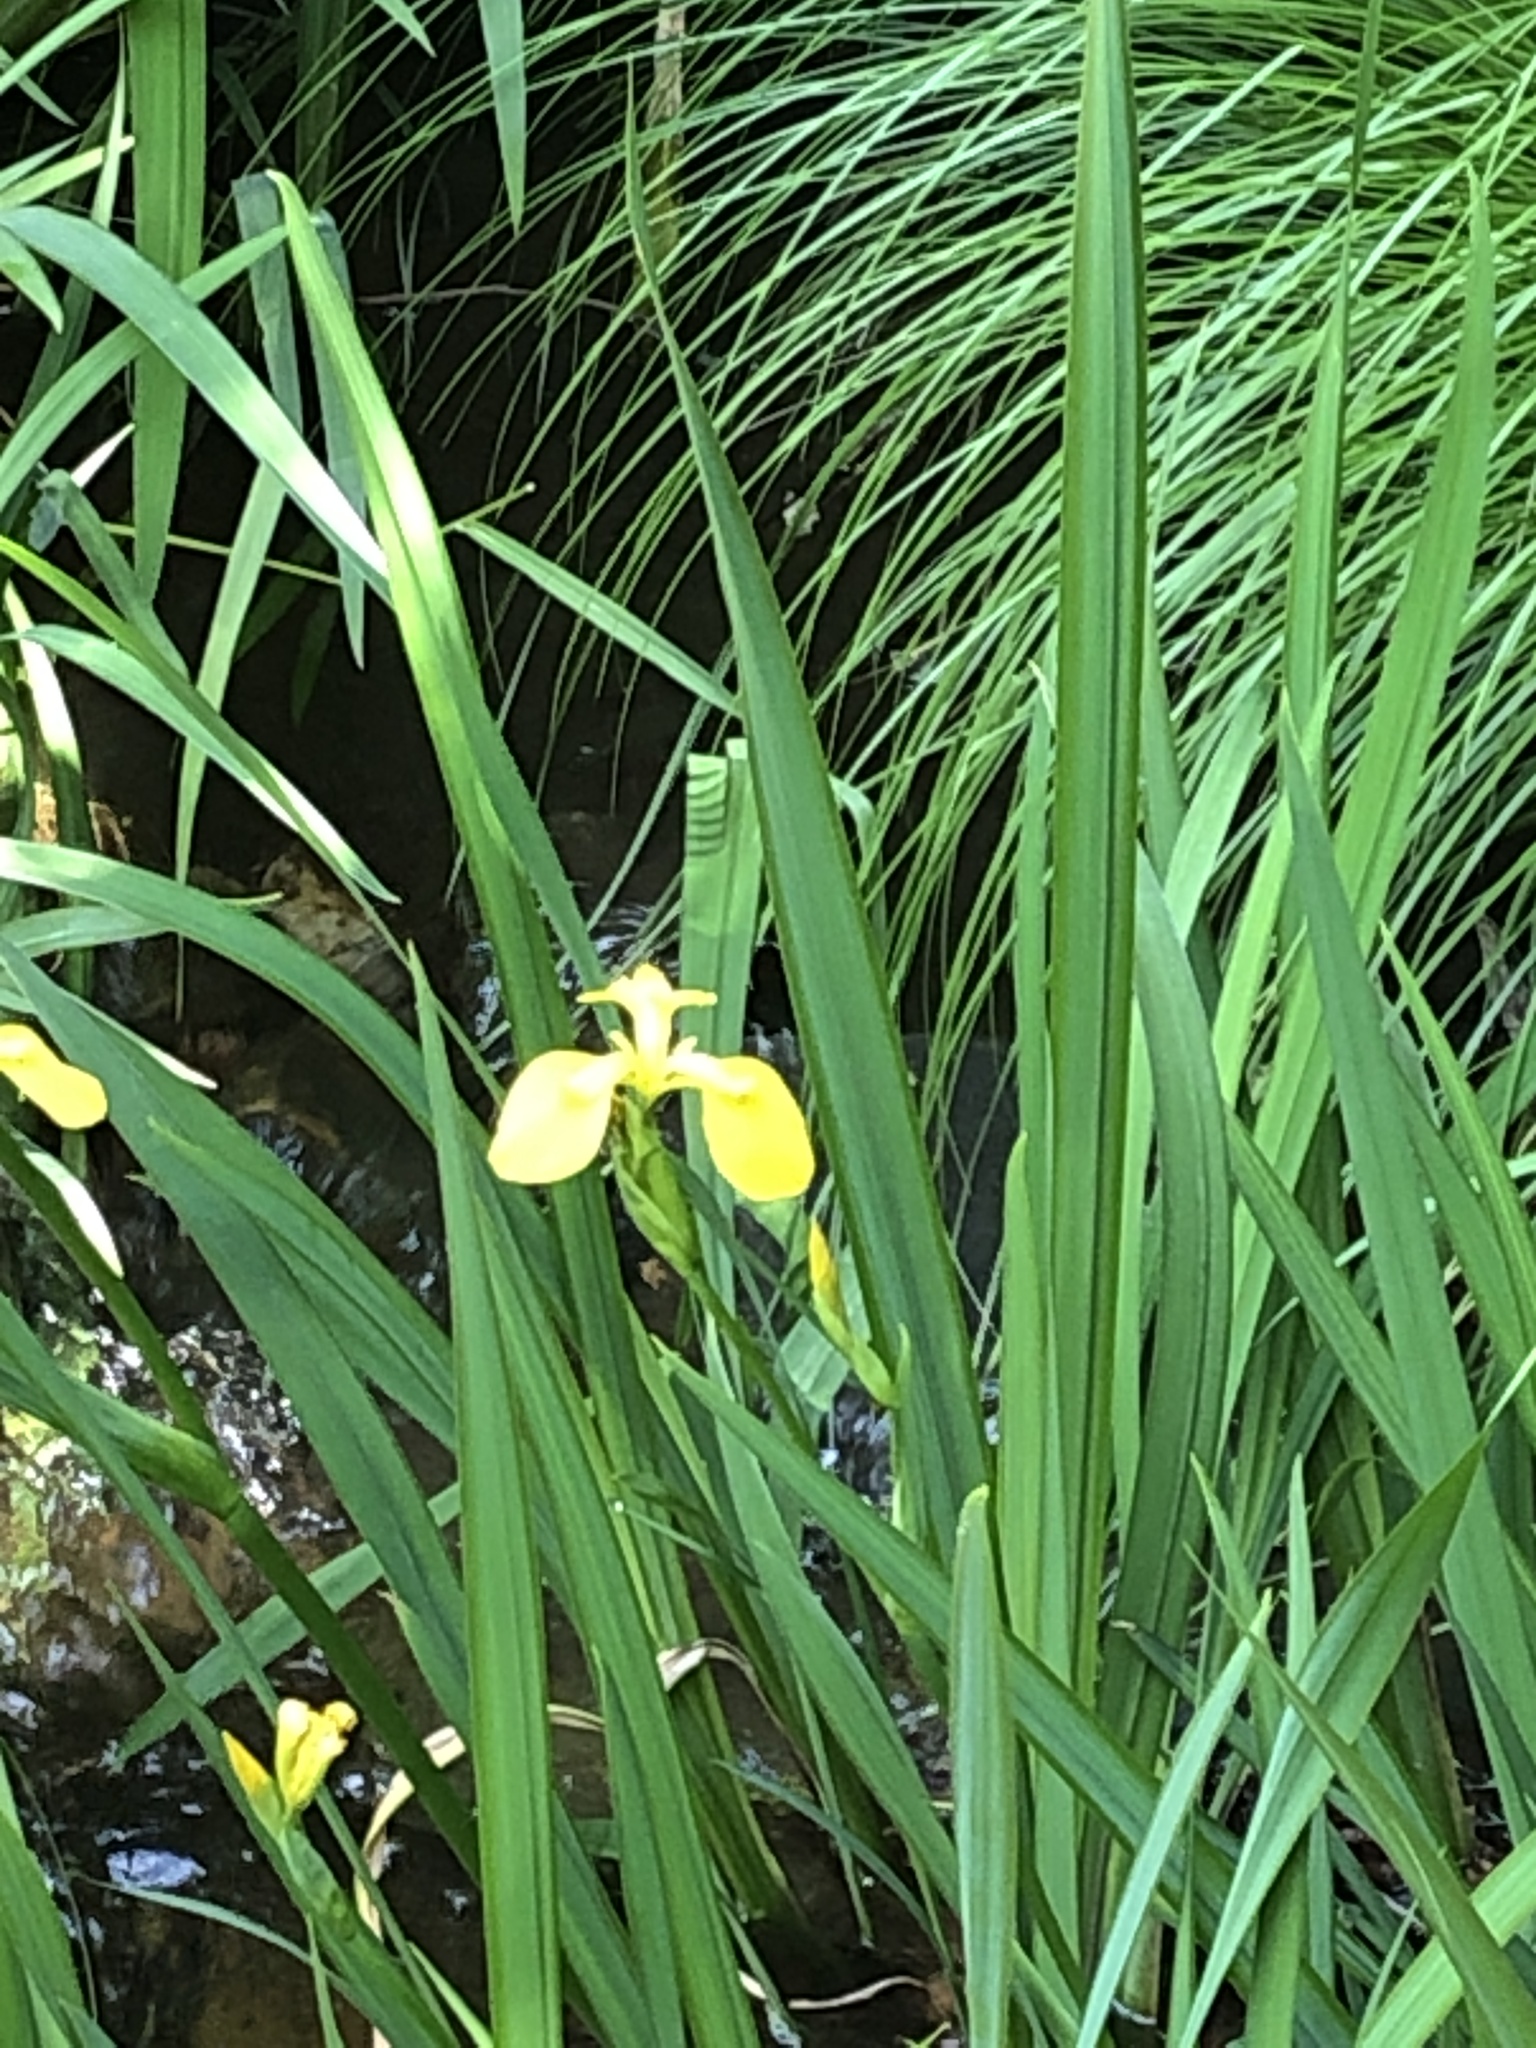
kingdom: Plantae
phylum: Tracheophyta
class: Liliopsida
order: Asparagales
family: Iridaceae
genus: Iris
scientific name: Iris pseudacorus
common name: Yellow flag
